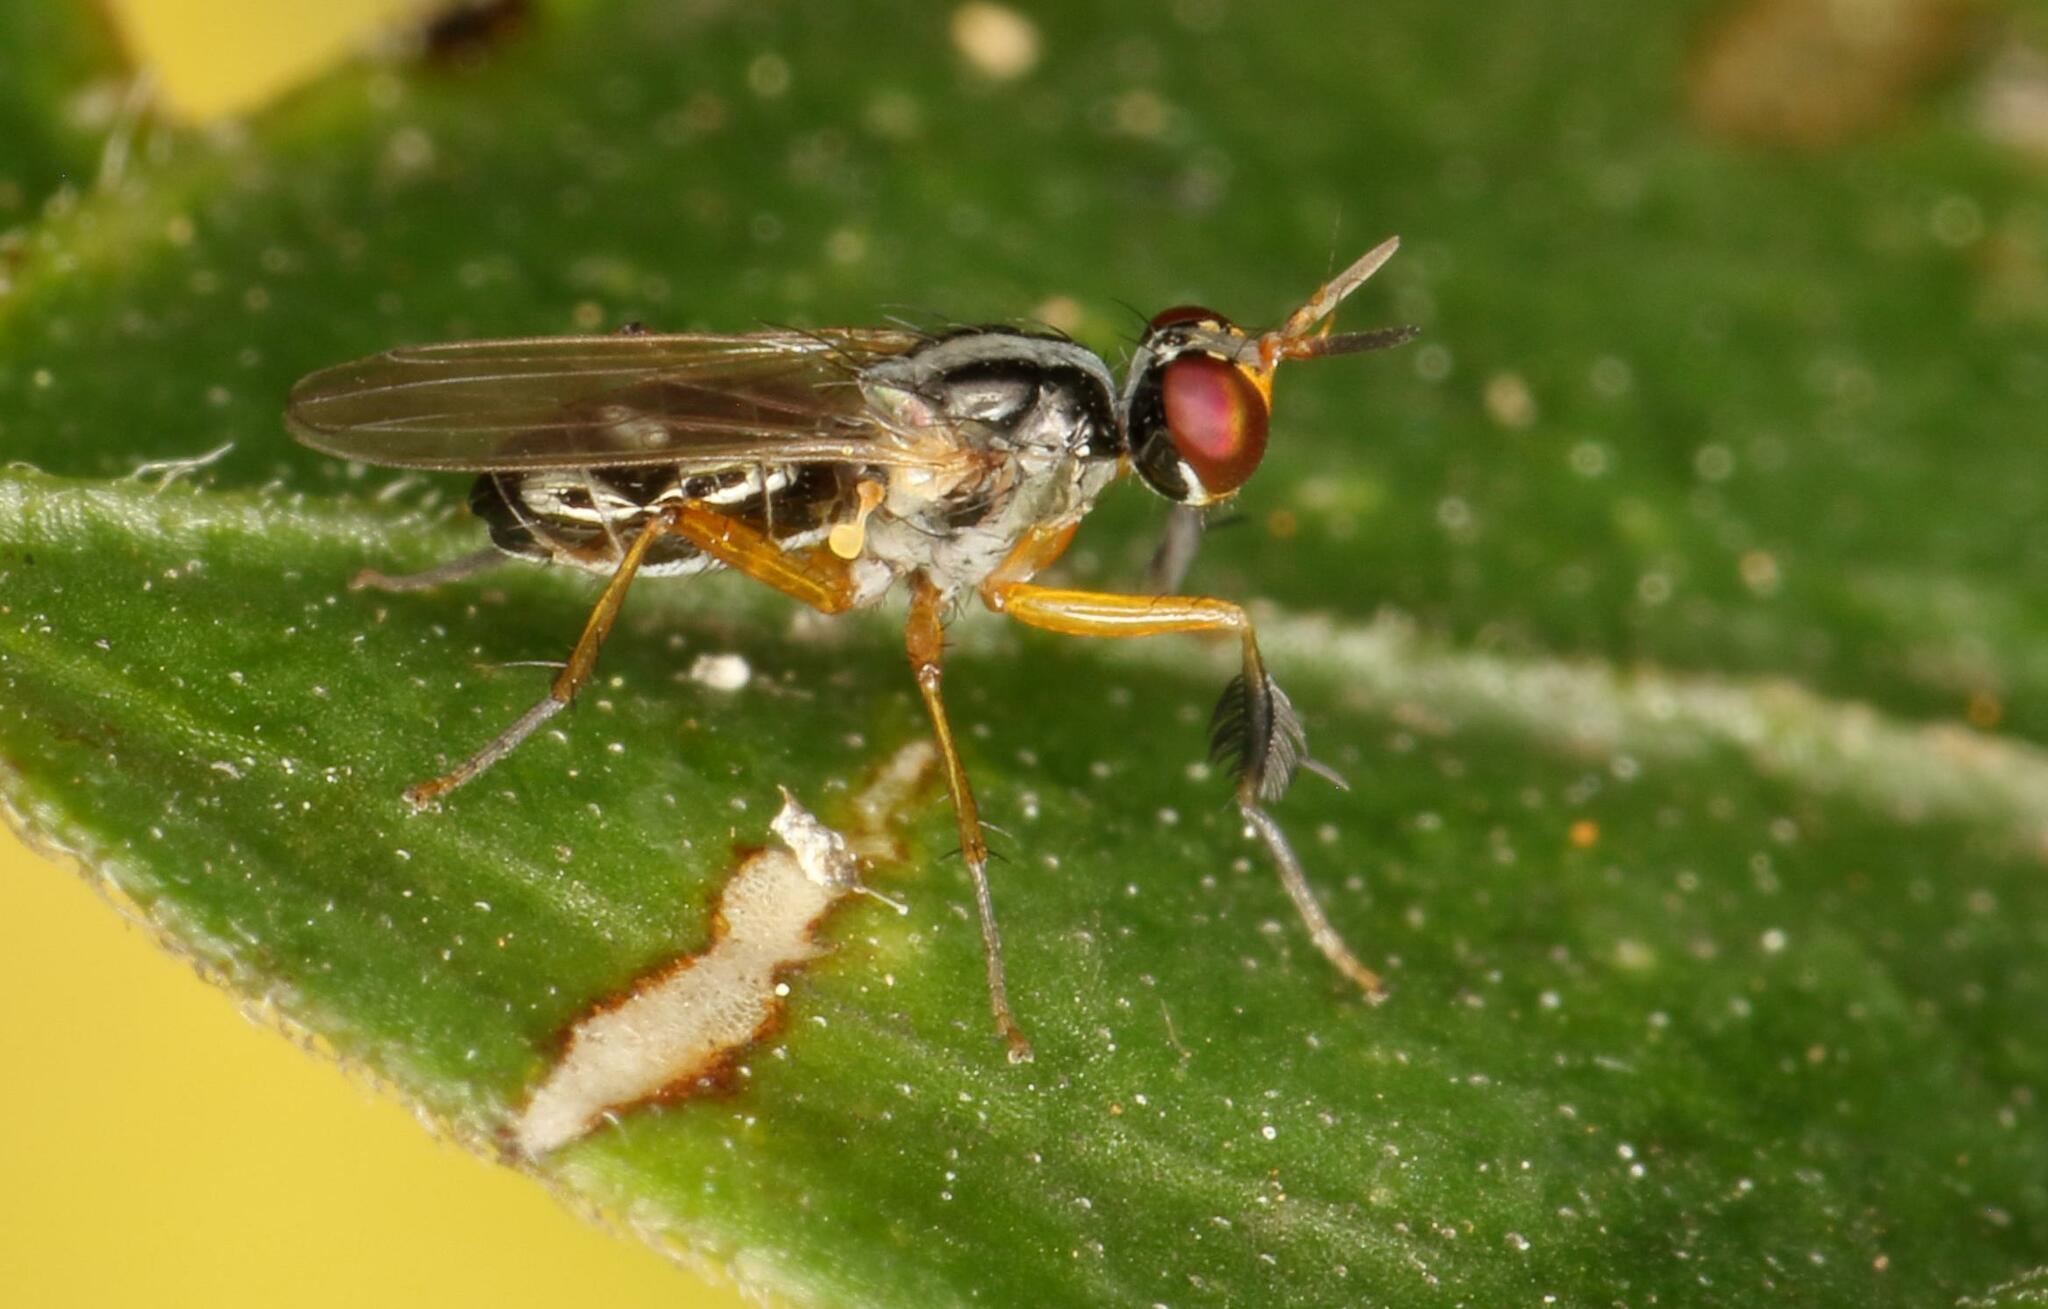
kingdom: Animalia
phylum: Arthropoda
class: Insecta
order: Diptera
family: Muscidae
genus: Anaphalantus
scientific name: Anaphalantus longicornis
